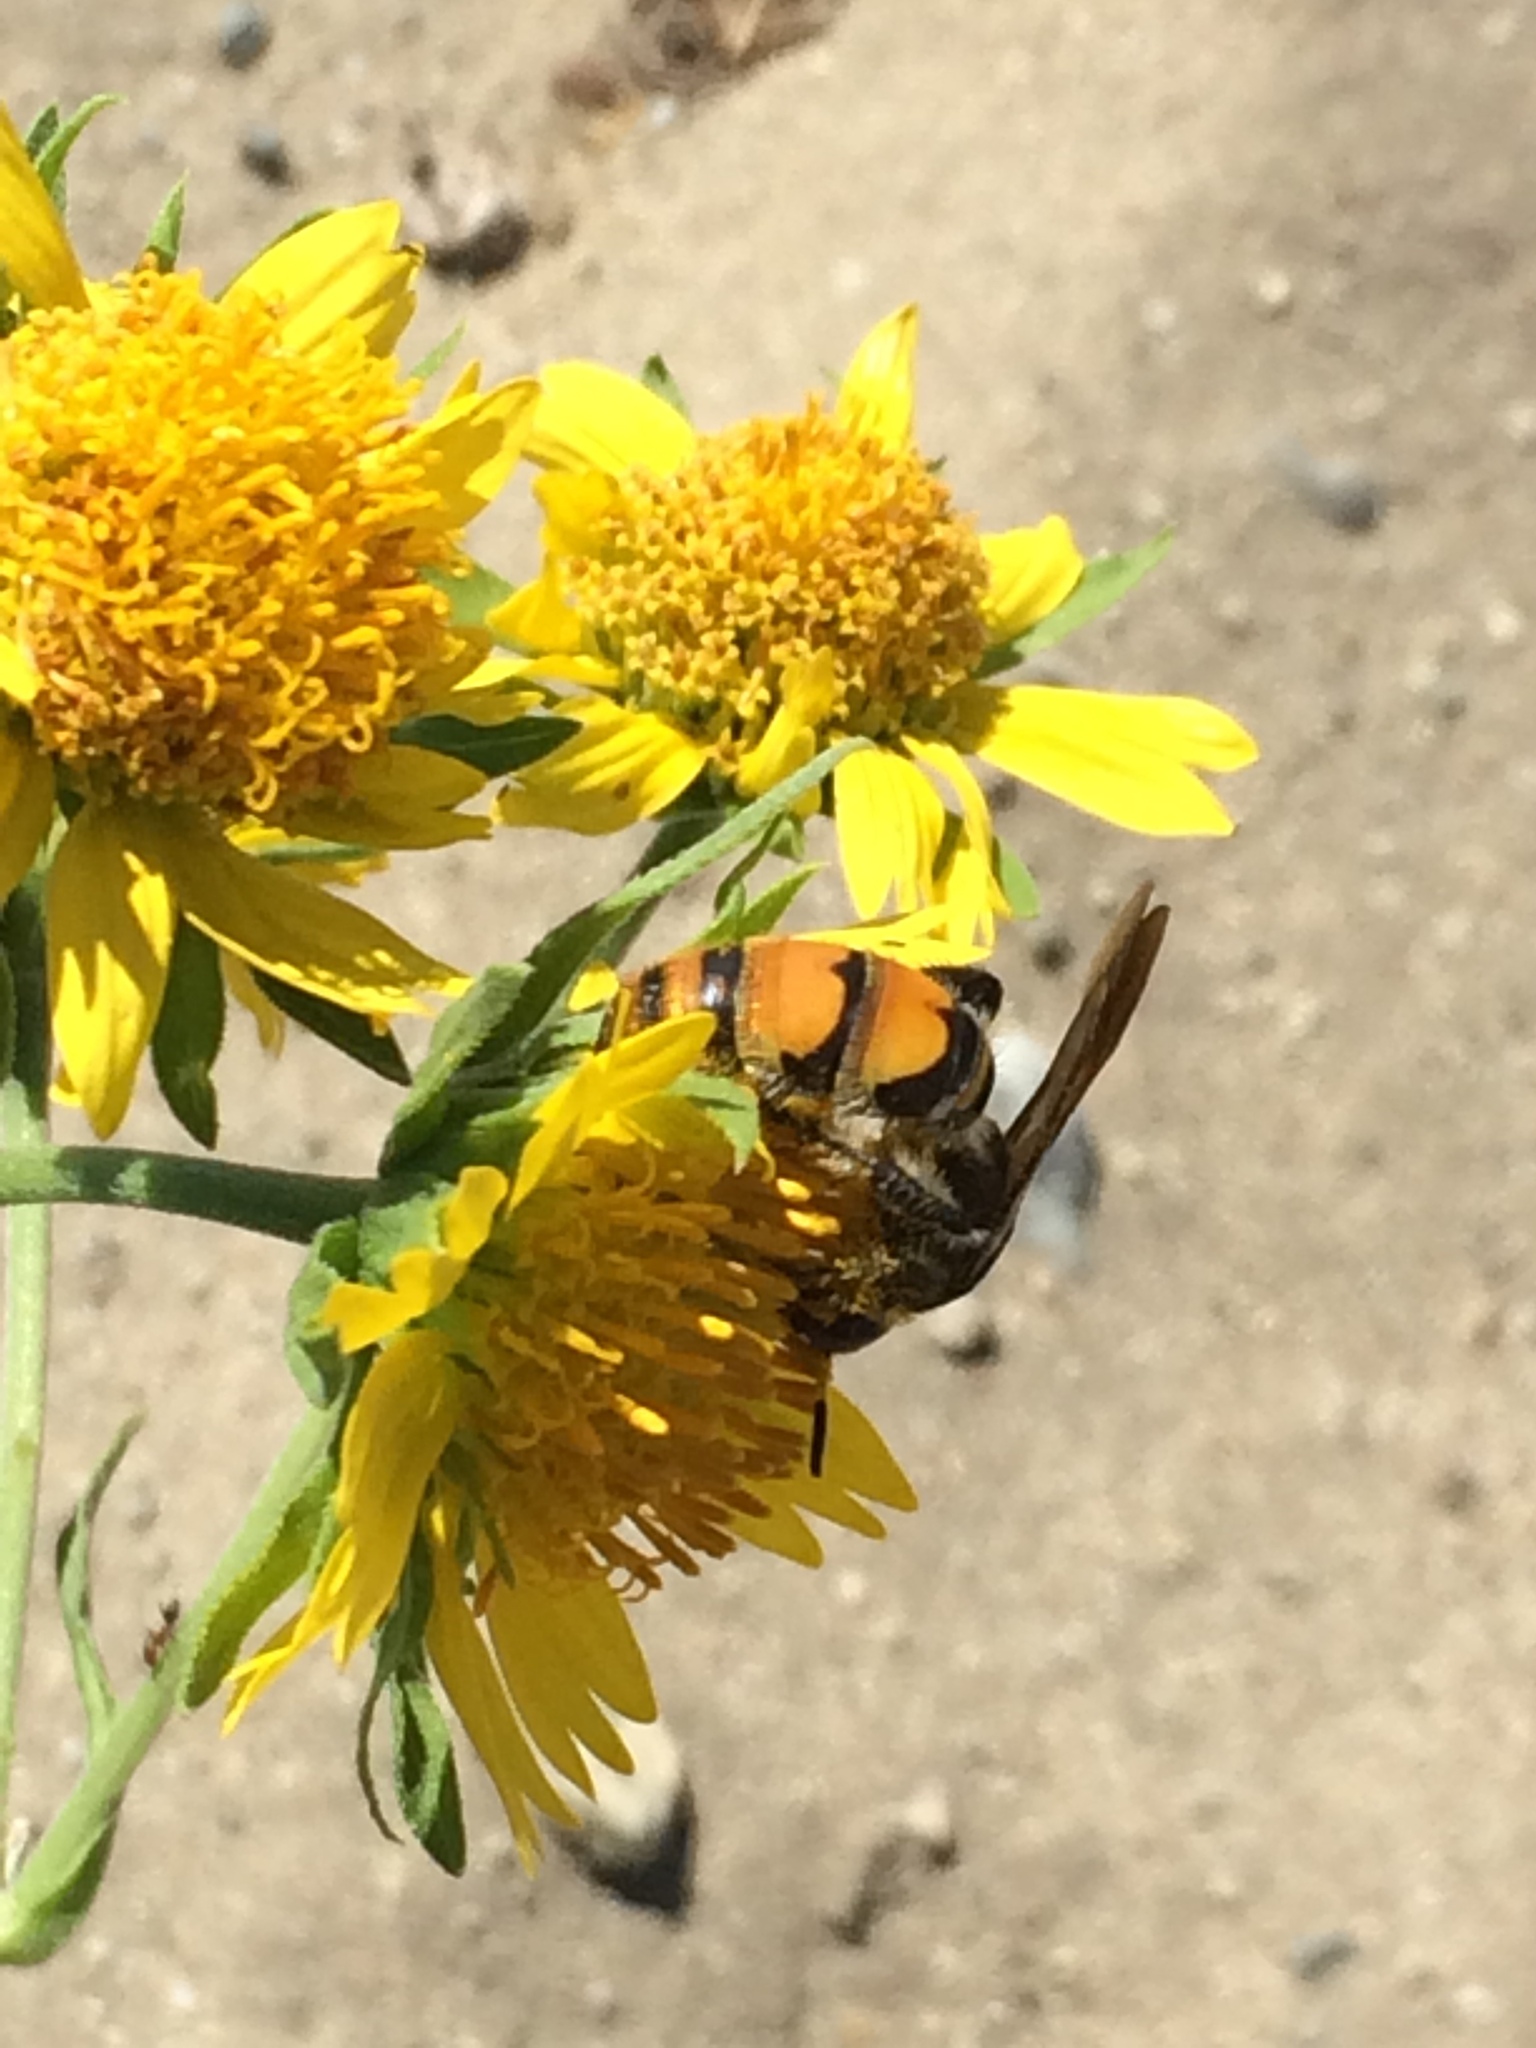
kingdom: Animalia
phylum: Arthropoda
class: Insecta
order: Hymenoptera
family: Scoliidae
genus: Dielis
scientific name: Dielis tolteca
